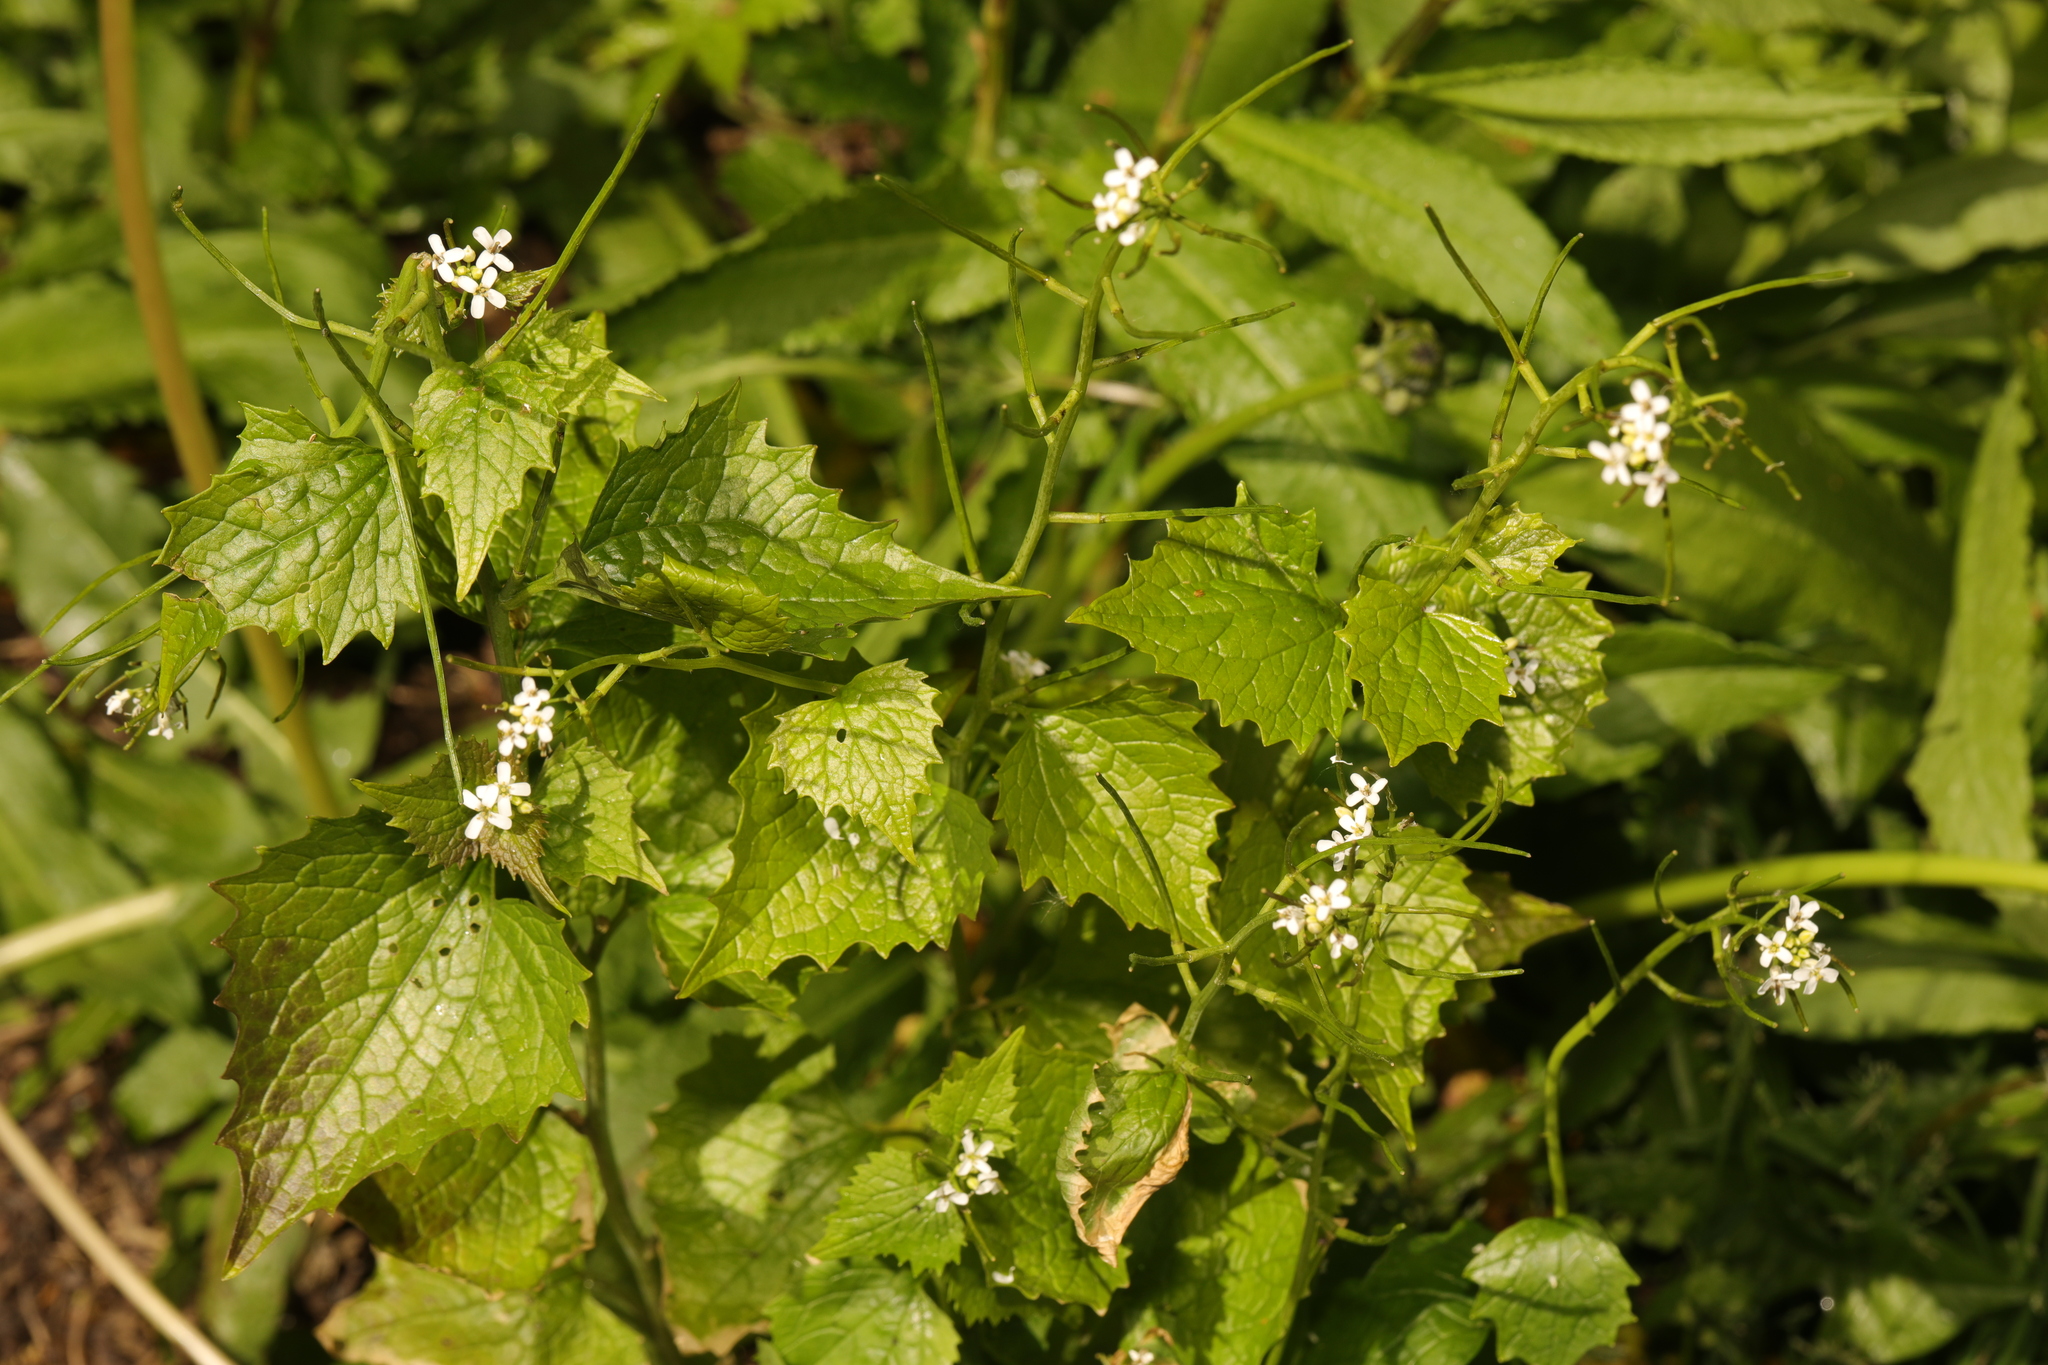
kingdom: Plantae
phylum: Tracheophyta
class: Magnoliopsida
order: Brassicales
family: Brassicaceae
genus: Alliaria
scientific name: Alliaria petiolata
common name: Garlic mustard
